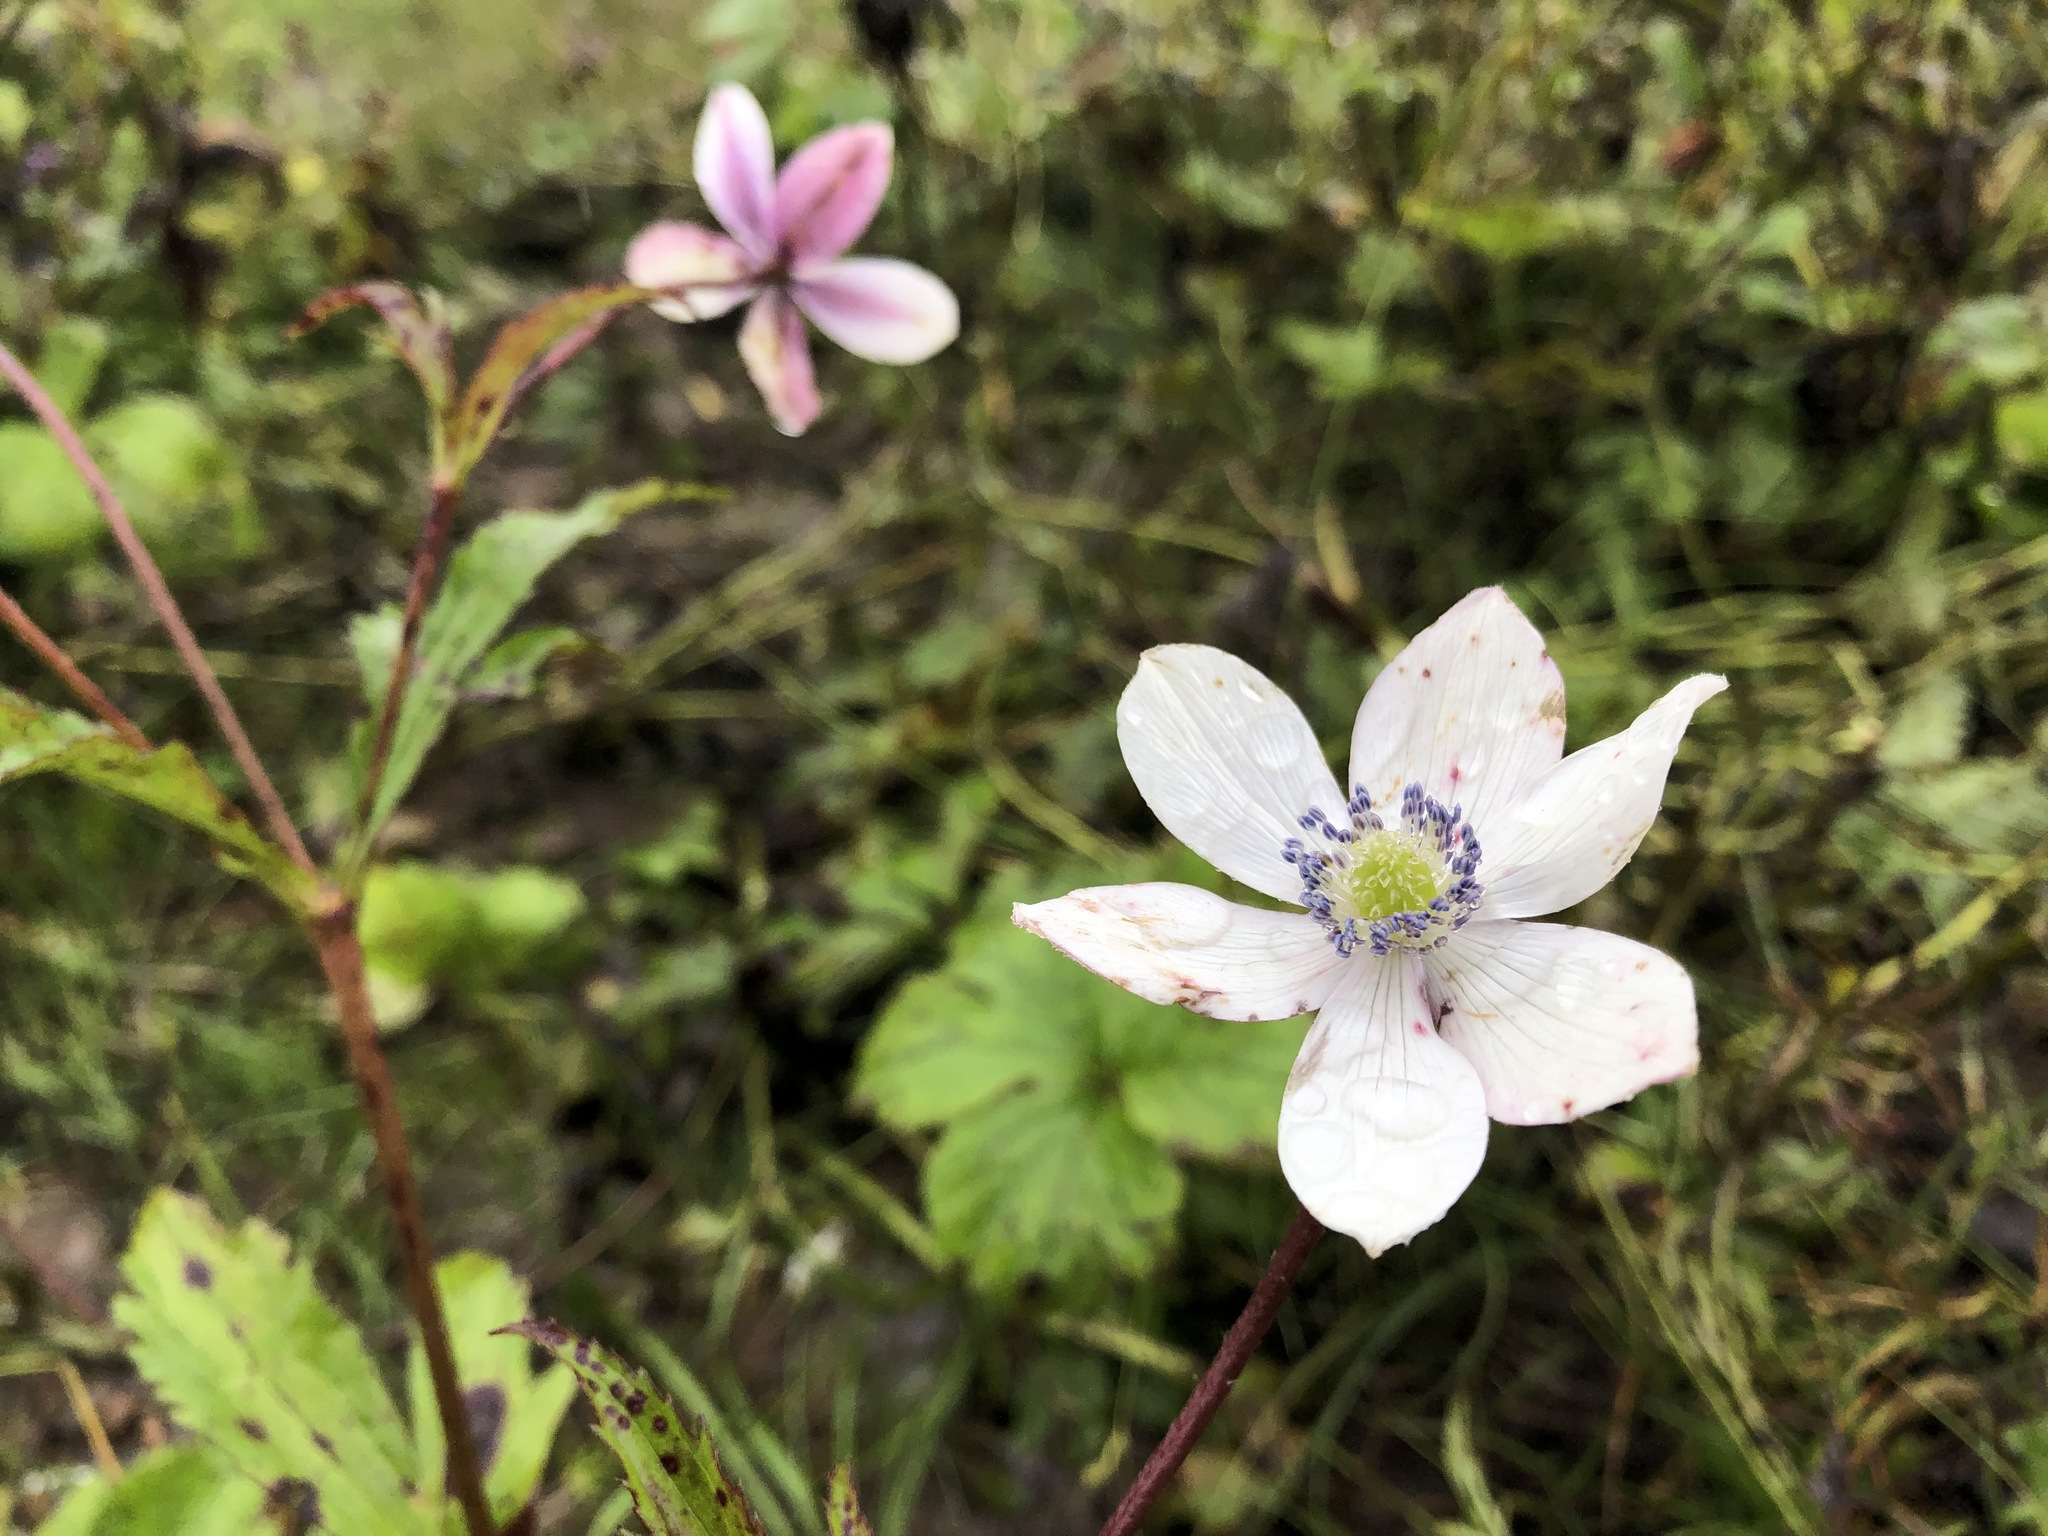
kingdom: Plantae
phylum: Tracheophyta
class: Magnoliopsida
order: Ranunculales
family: Ranunculaceae
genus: Eriocapitella
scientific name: Eriocapitella rivularis
